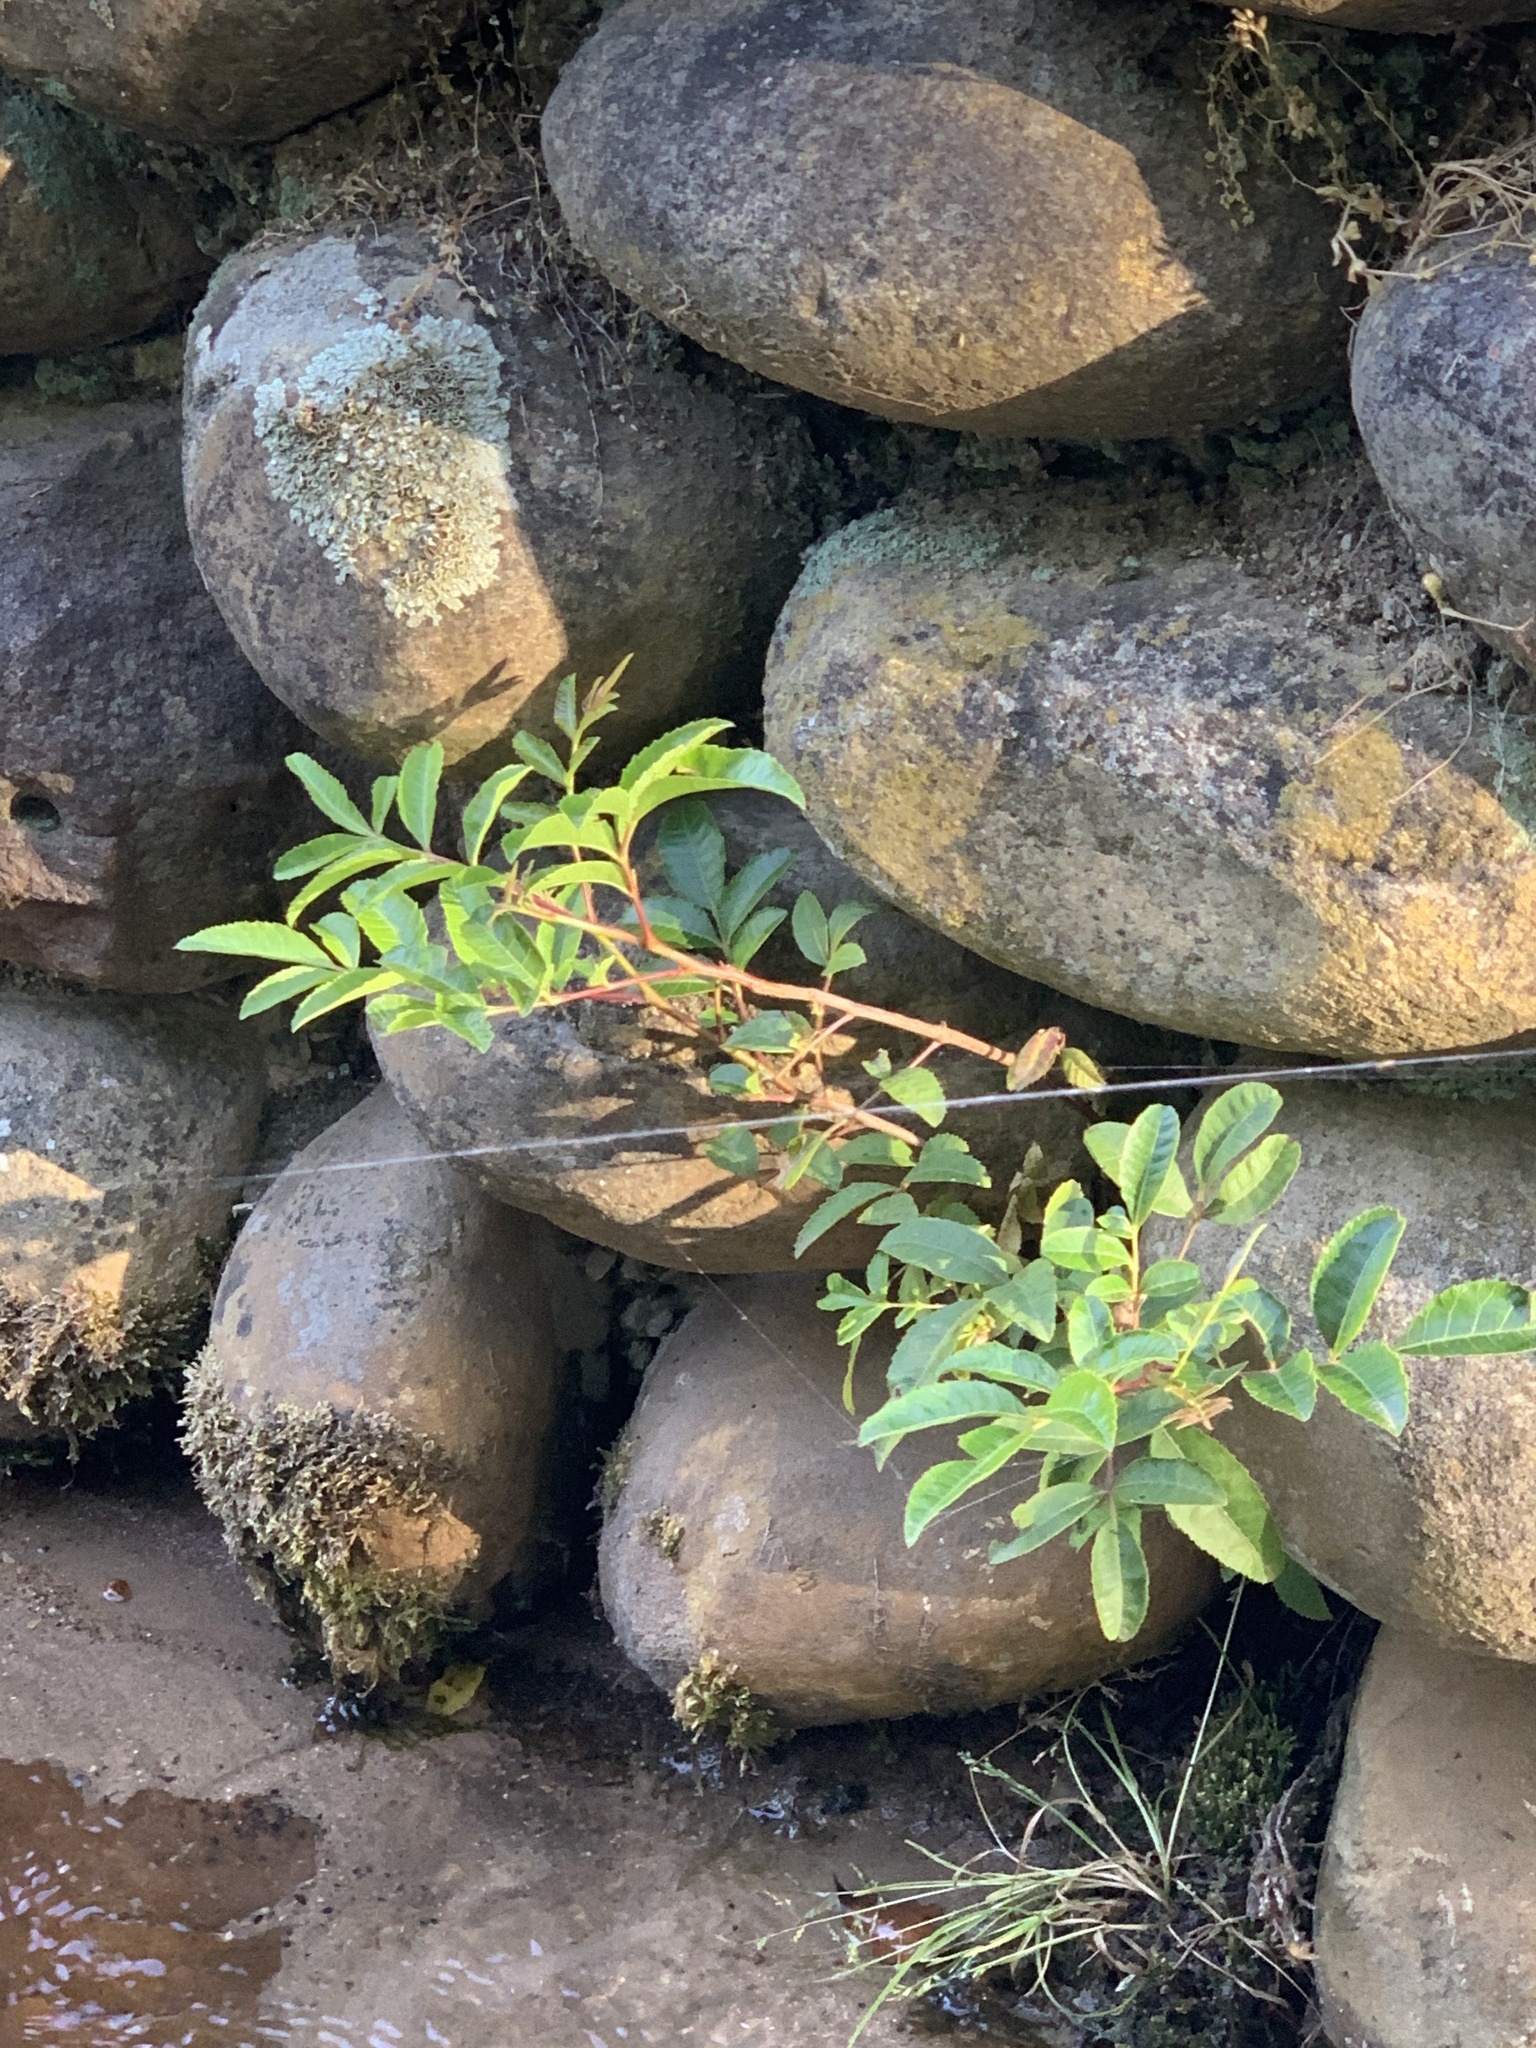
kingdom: Plantae
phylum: Tracheophyta
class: Magnoliopsida
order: Sapindales
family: Anacardiaceae
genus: Schinus
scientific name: Schinus terebinthifolia
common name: Brazilian peppertree
